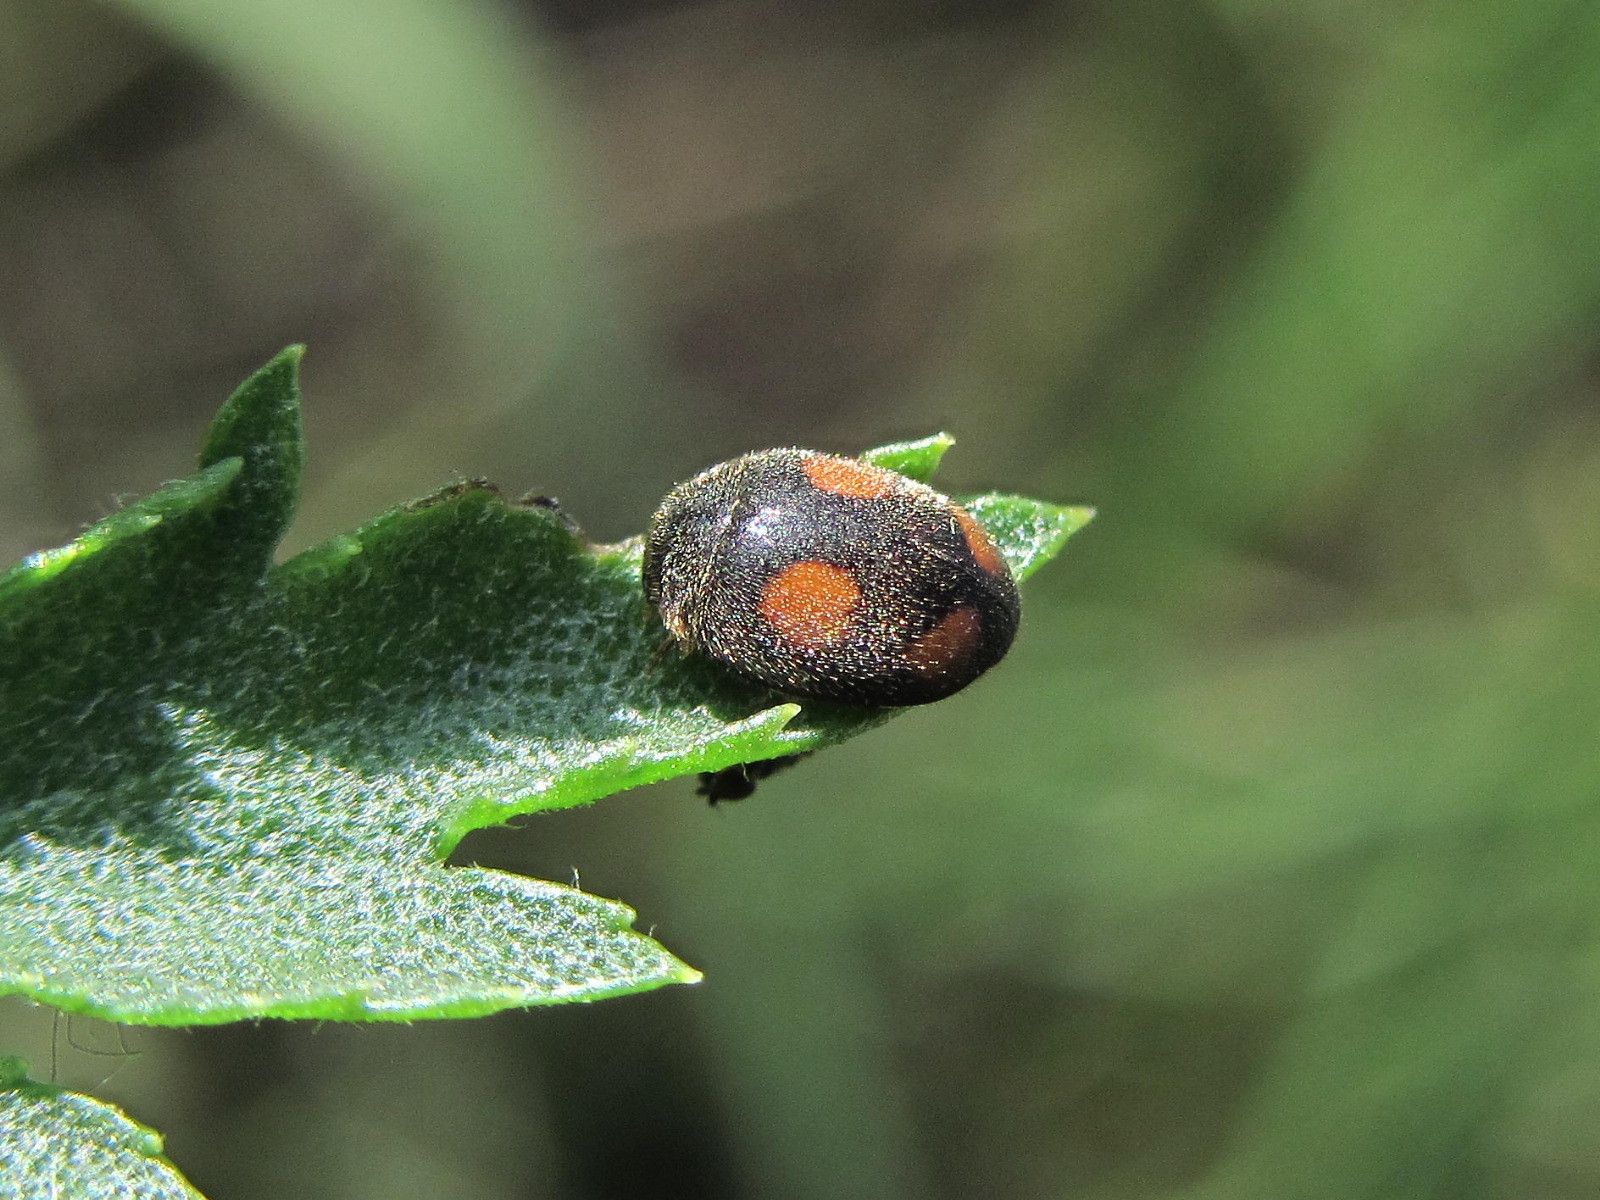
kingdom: Animalia
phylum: Arthropoda
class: Insecta
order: Coleoptera
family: Coccinellidae
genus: Platynaspis
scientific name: Platynaspis luteorubra
